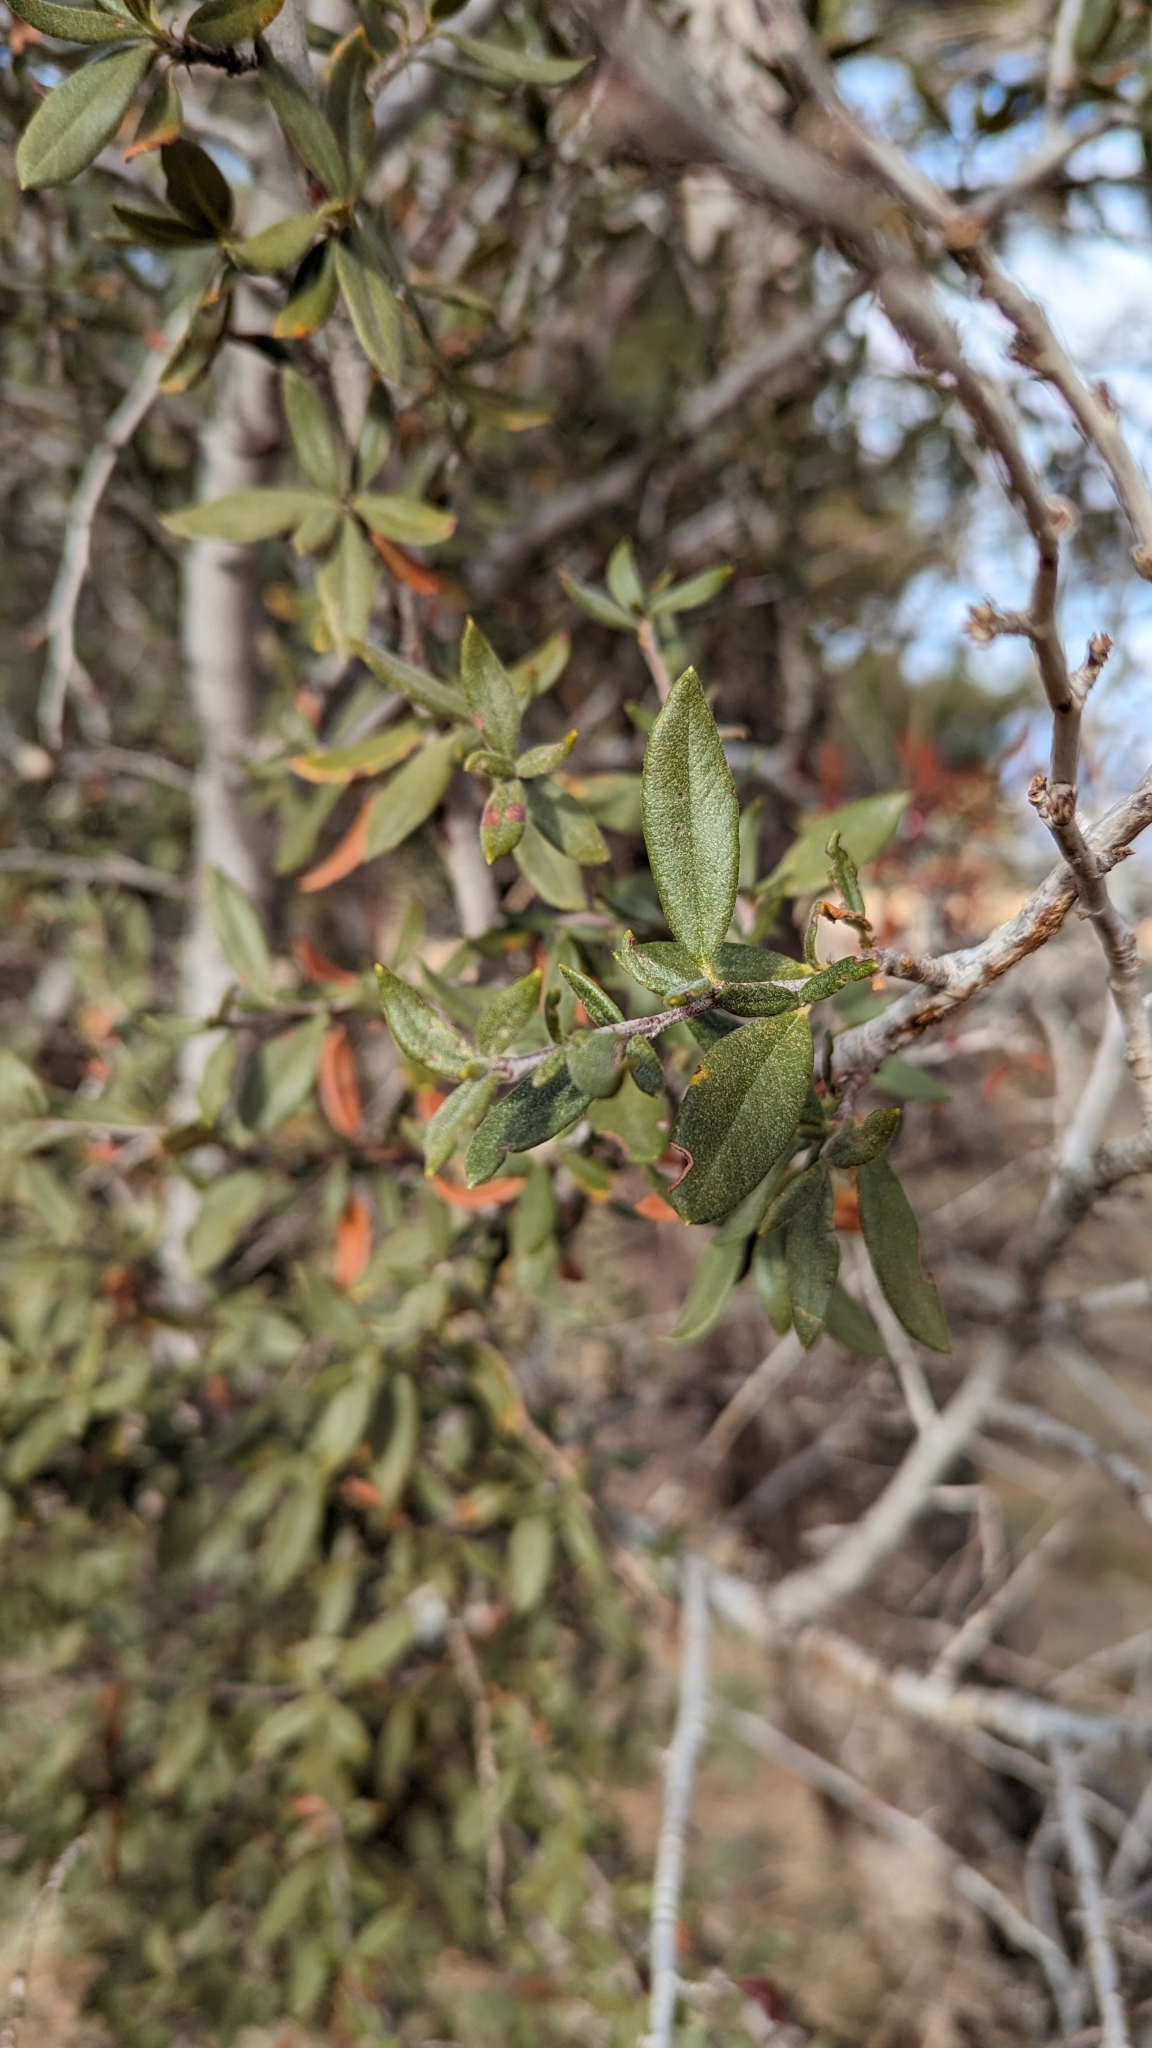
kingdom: Plantae
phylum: Tracheophyta
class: Magnoliopsida
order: Rosales
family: Rosaceae
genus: Cercocarpus
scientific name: Cercocarpus ledifolius
